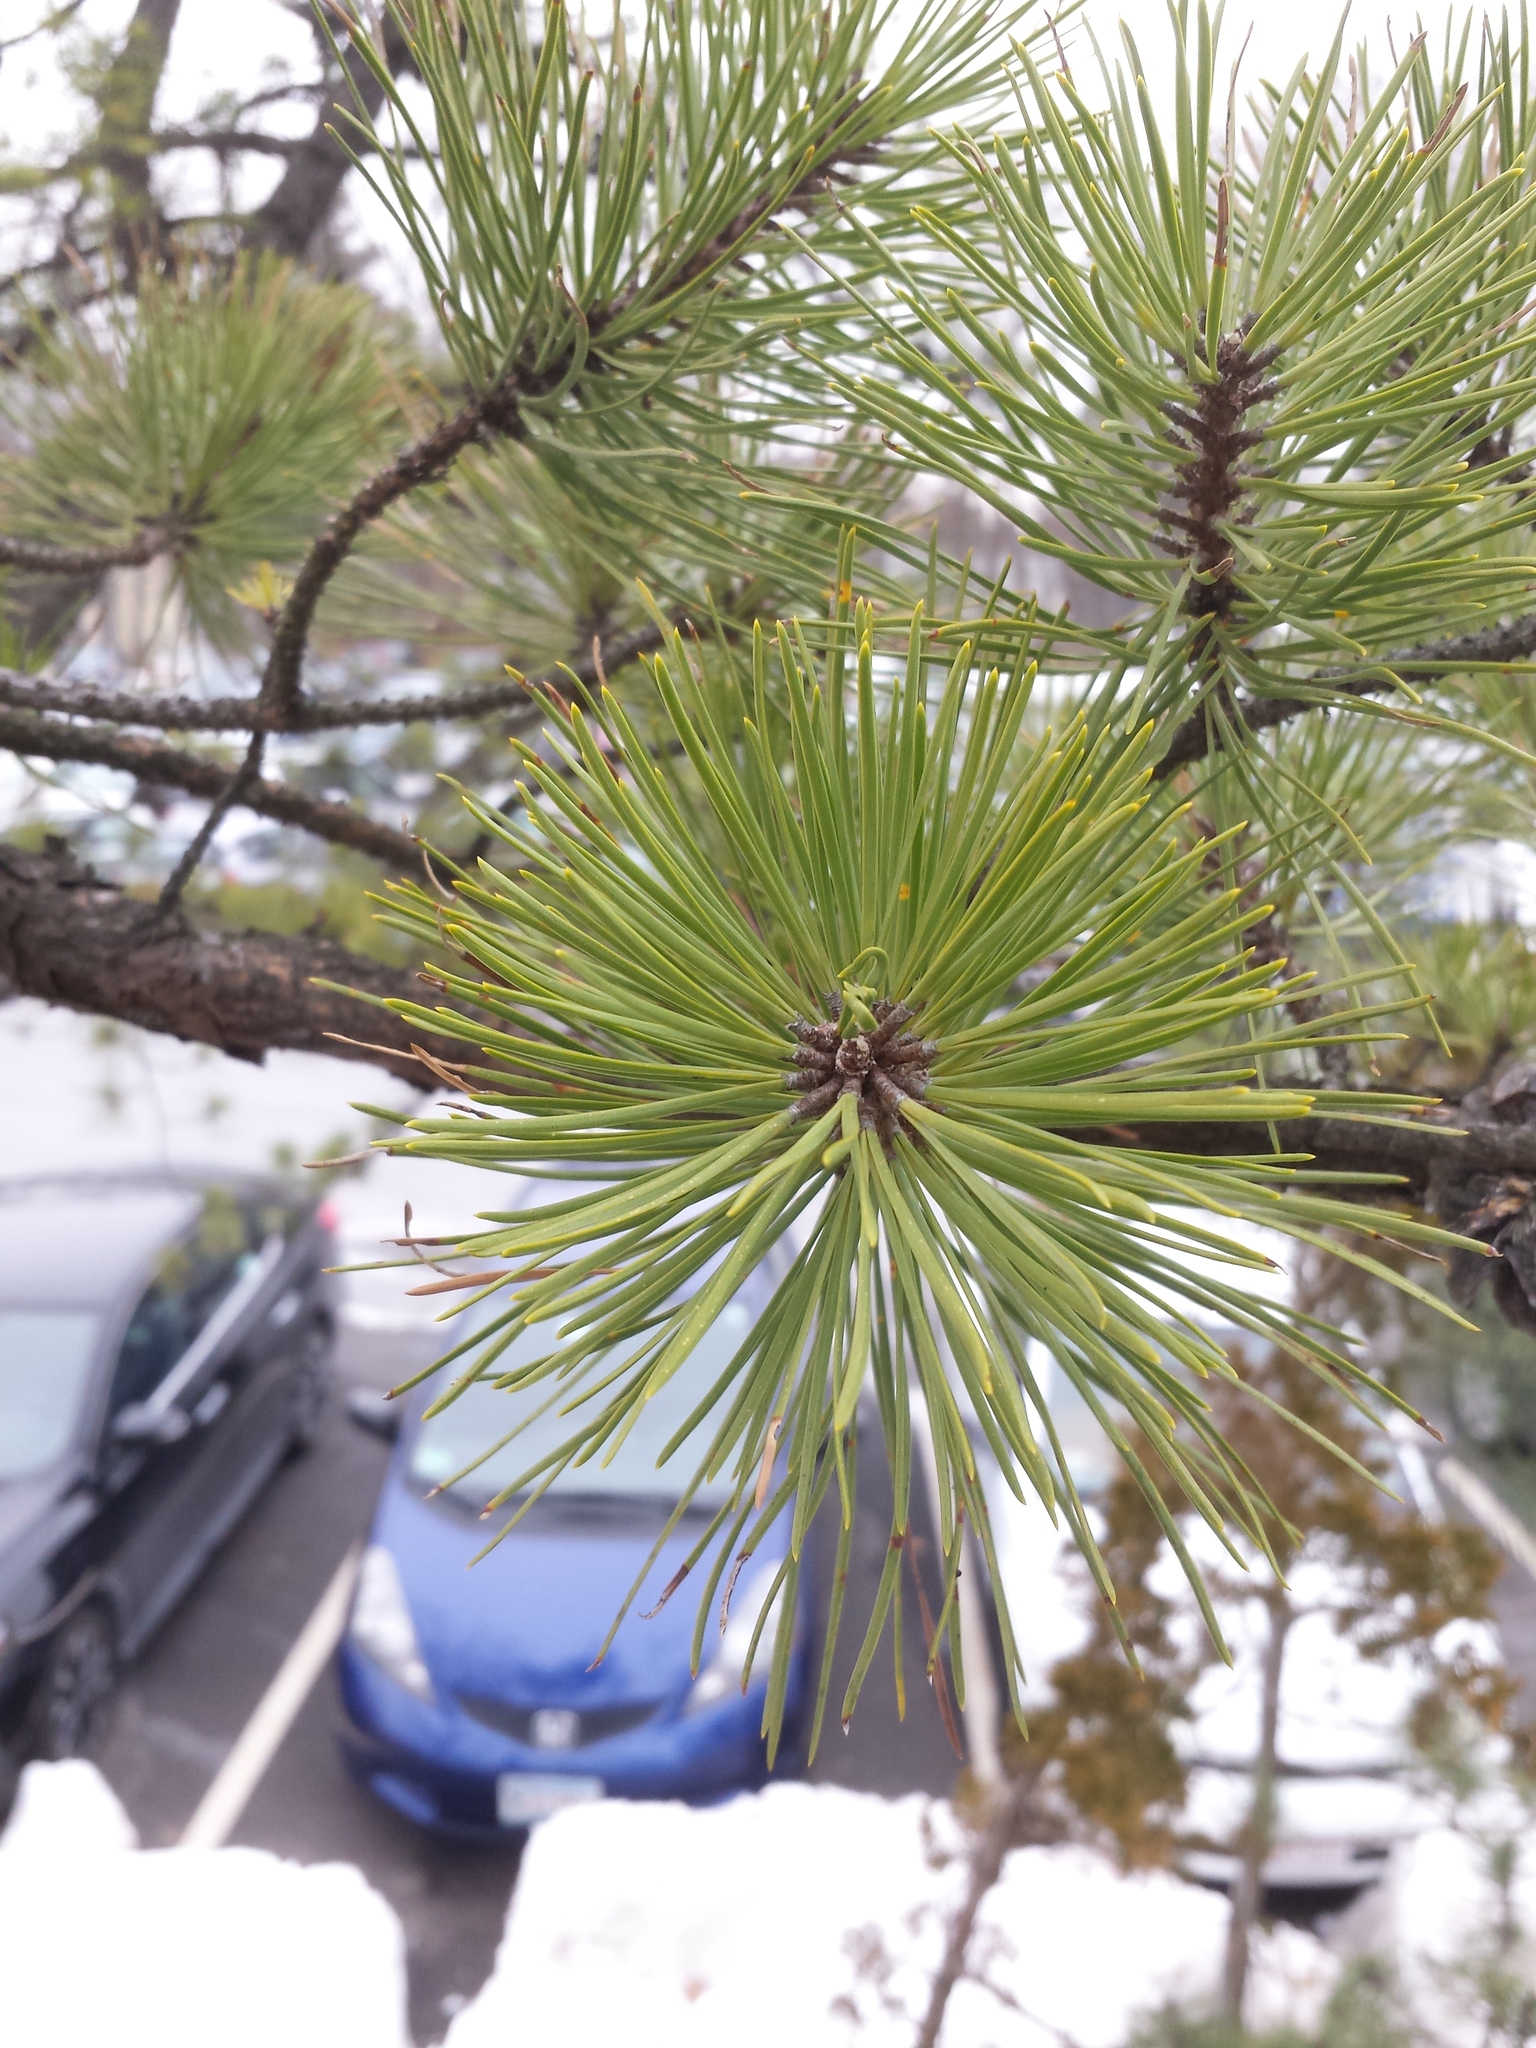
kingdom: Plantae
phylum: Tracheophyta
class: Pinopsida
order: Pinales
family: Pinaceae
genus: Pinus
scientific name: Pinus rigida
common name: Pitch pine
